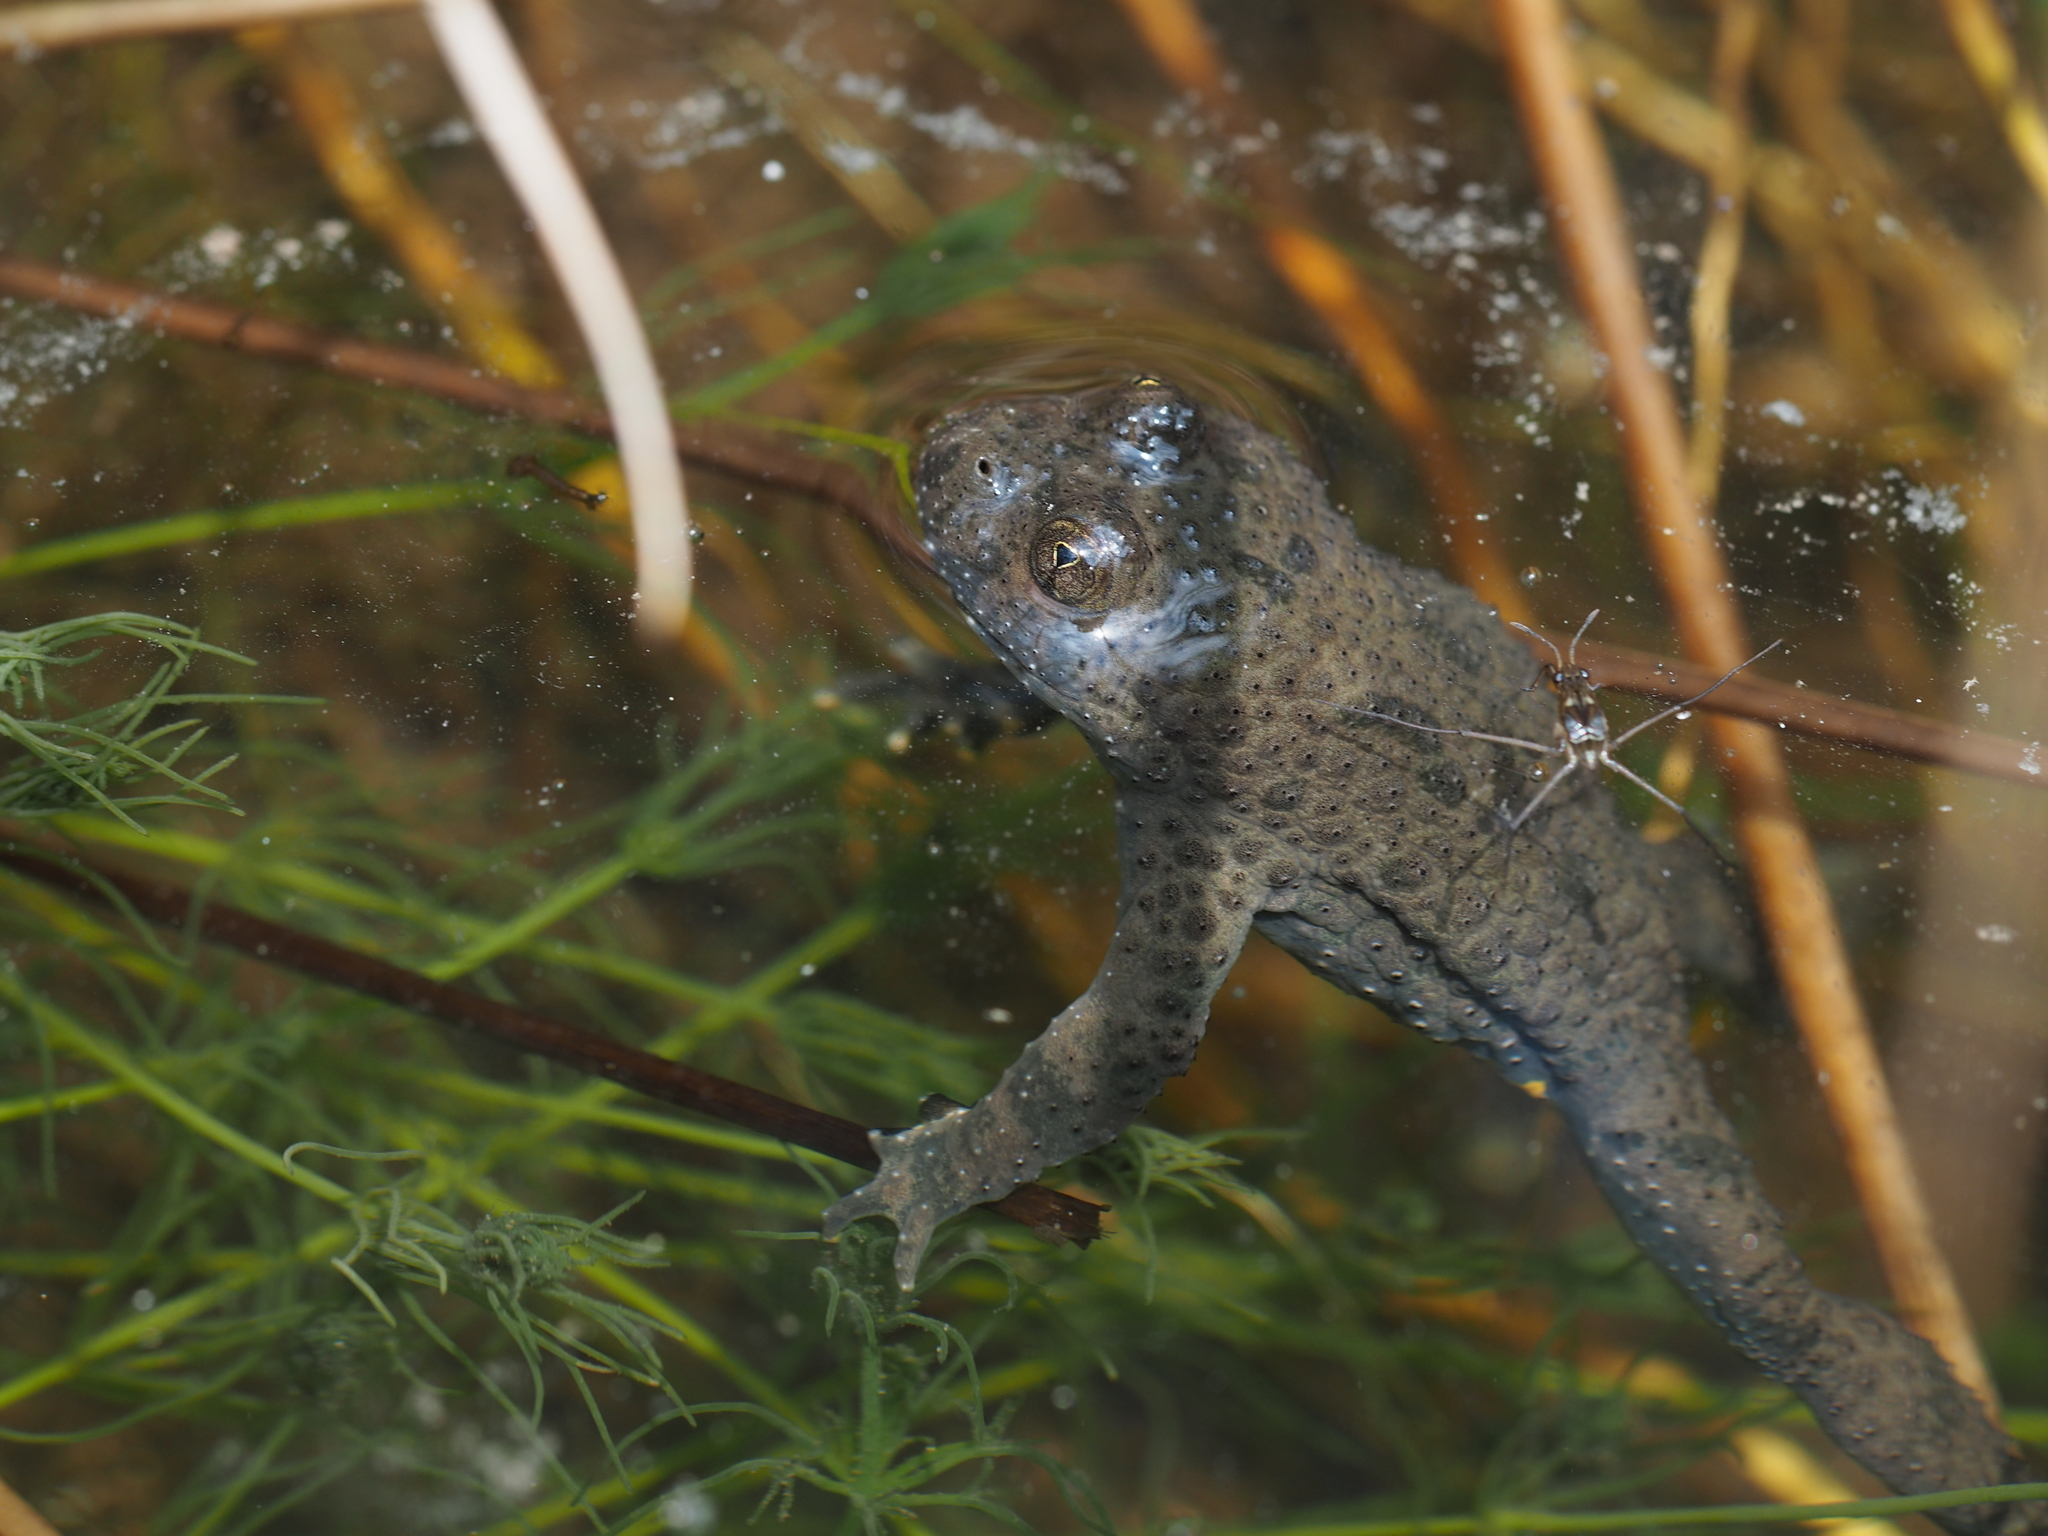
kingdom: Animalia
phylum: Chordata
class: Amphibia
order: Anura
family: Bombinatoridae
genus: Bombina
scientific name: Bombina variegata
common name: Yellow-bellied toad
